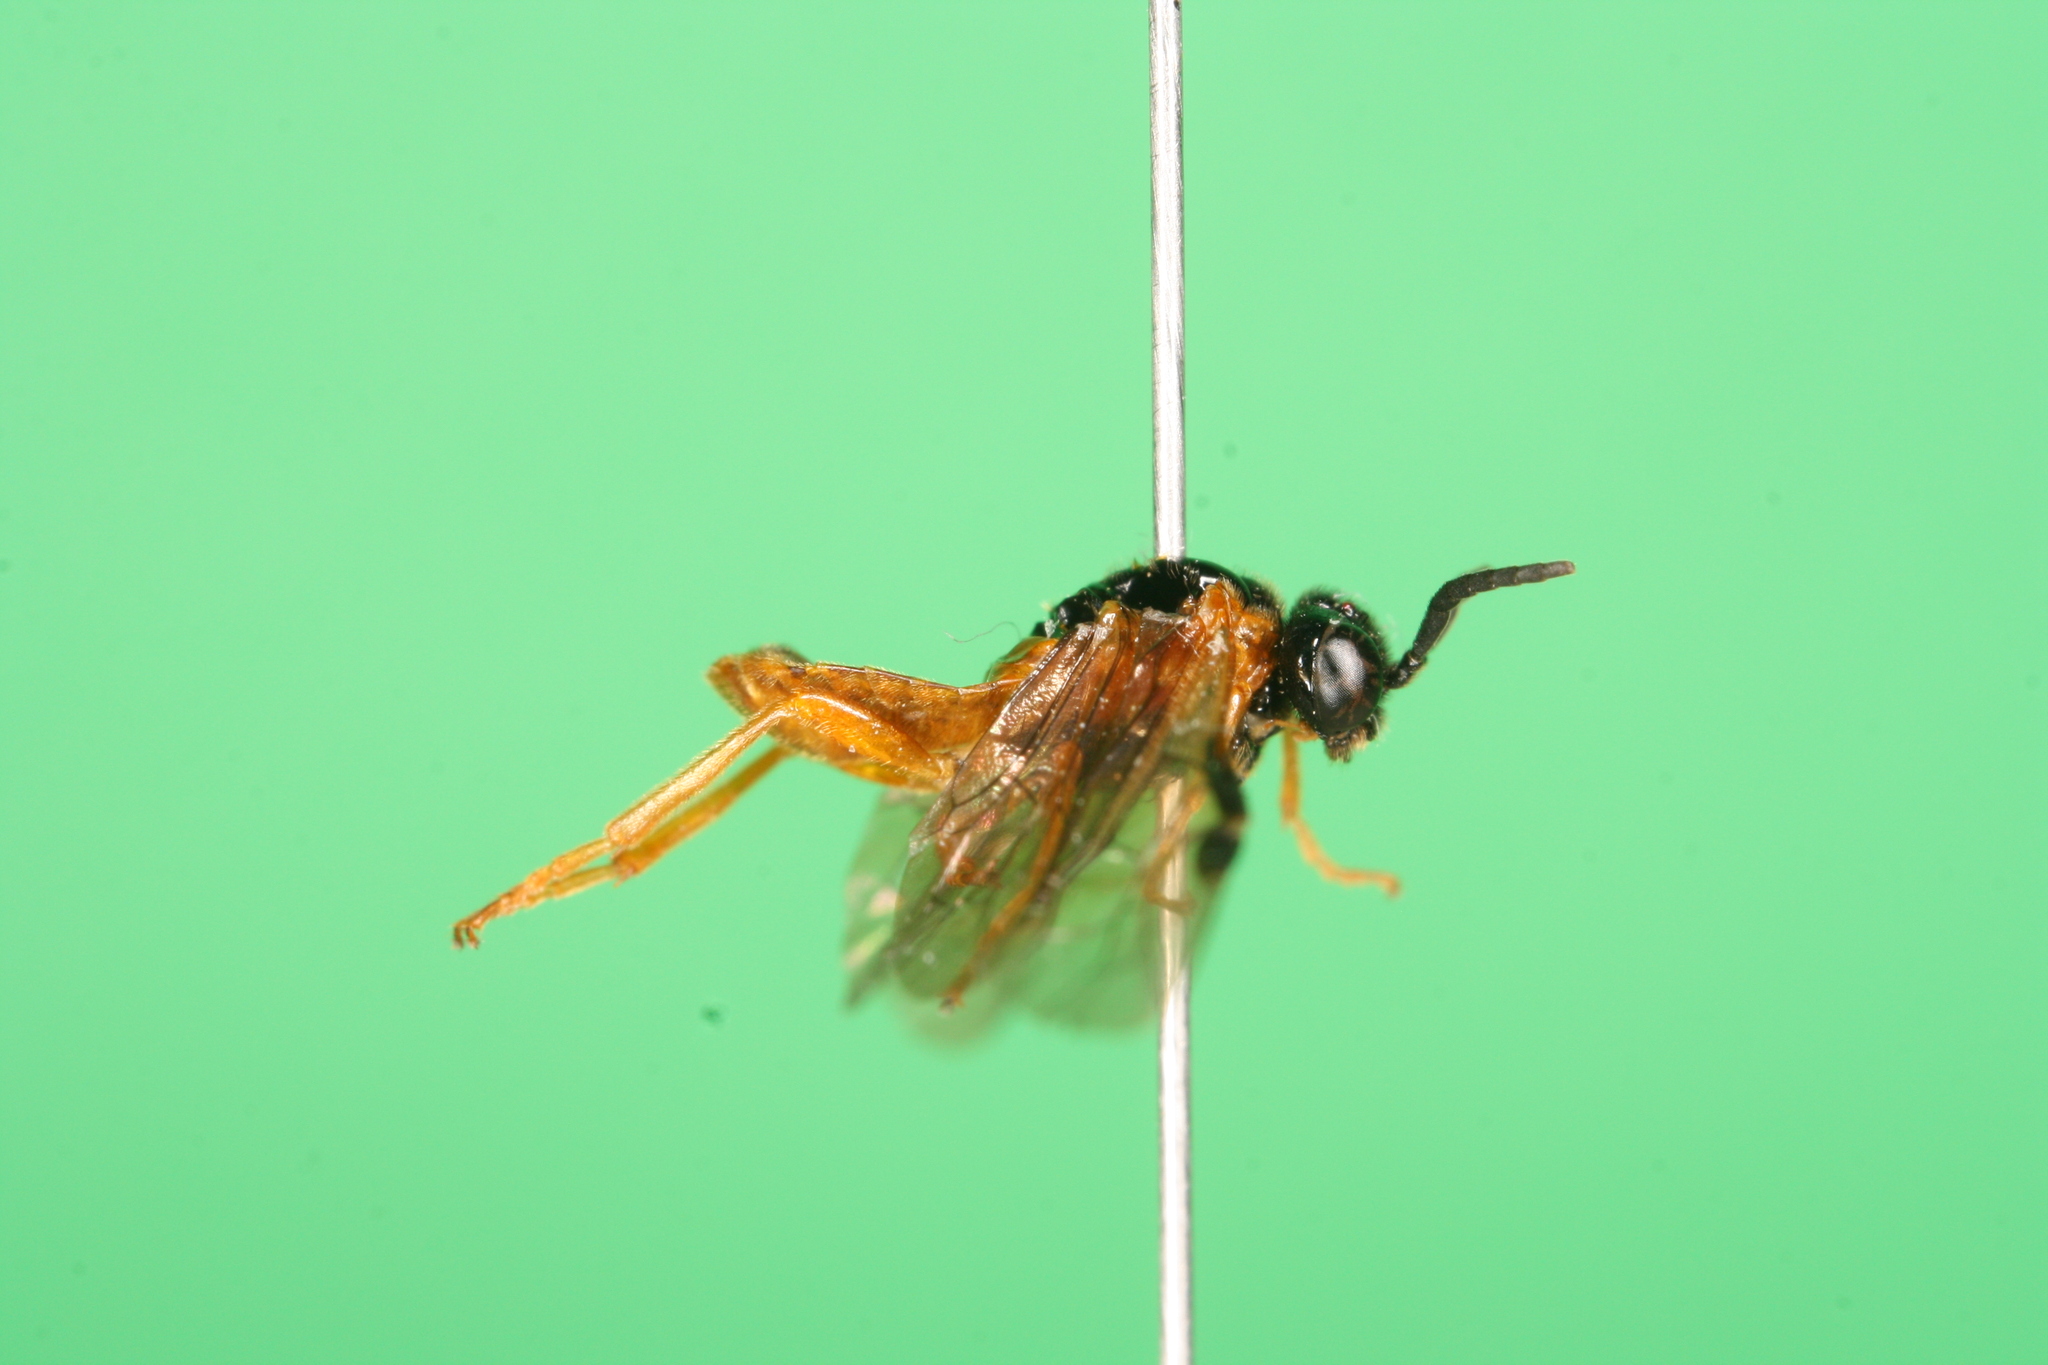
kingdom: Animalia
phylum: Arthropoda
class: Insecta
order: Hymenoptera
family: Tenthredinidae
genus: Selandria
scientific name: Selandria serva
